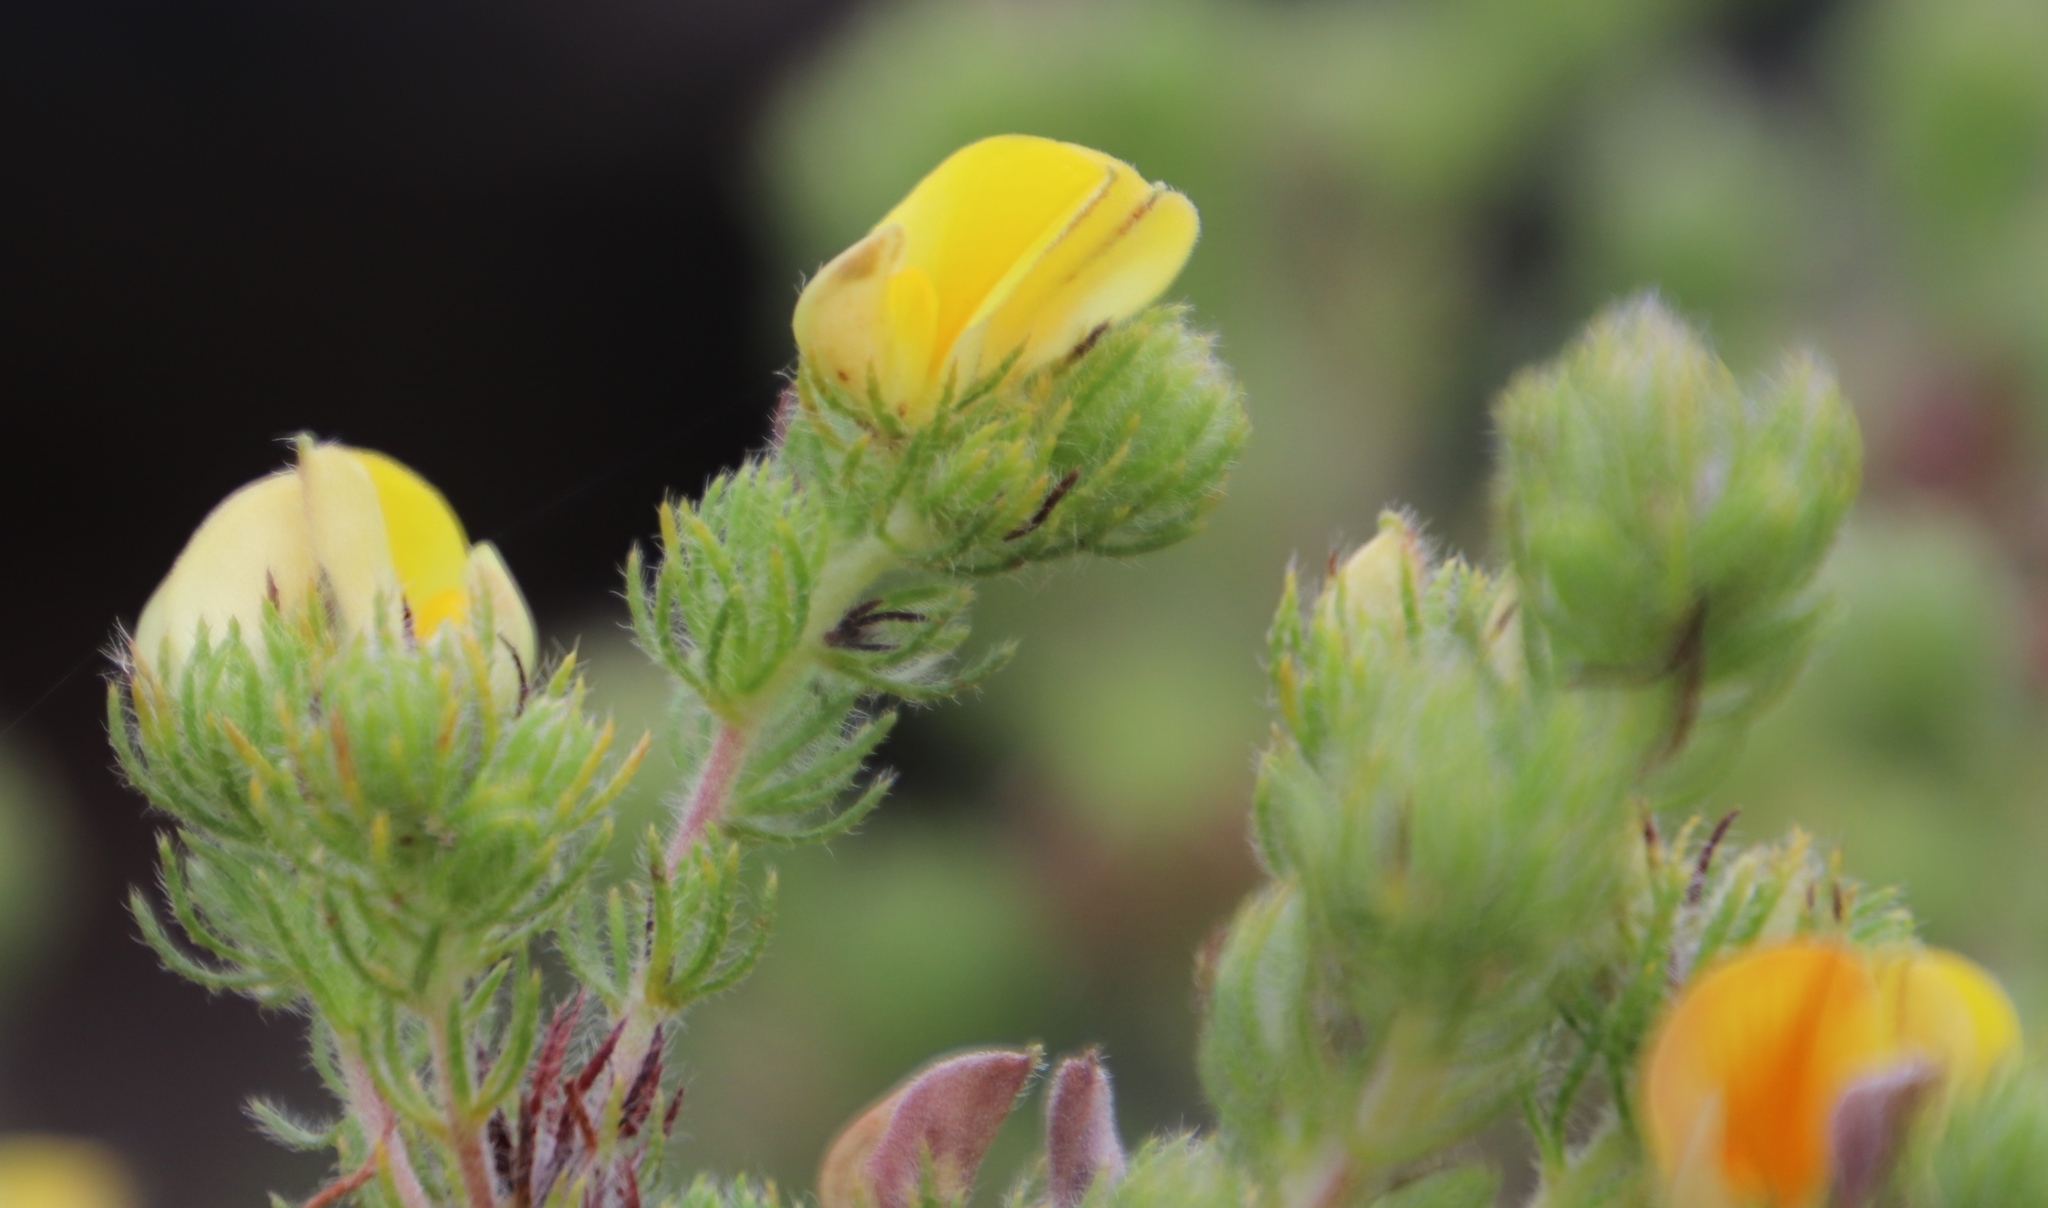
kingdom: Plantae
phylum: Tracheophyta
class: Magnoliopsida
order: Fabales
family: Fabaceae
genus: Aspalathus
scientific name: Aspalathus ciliaris
